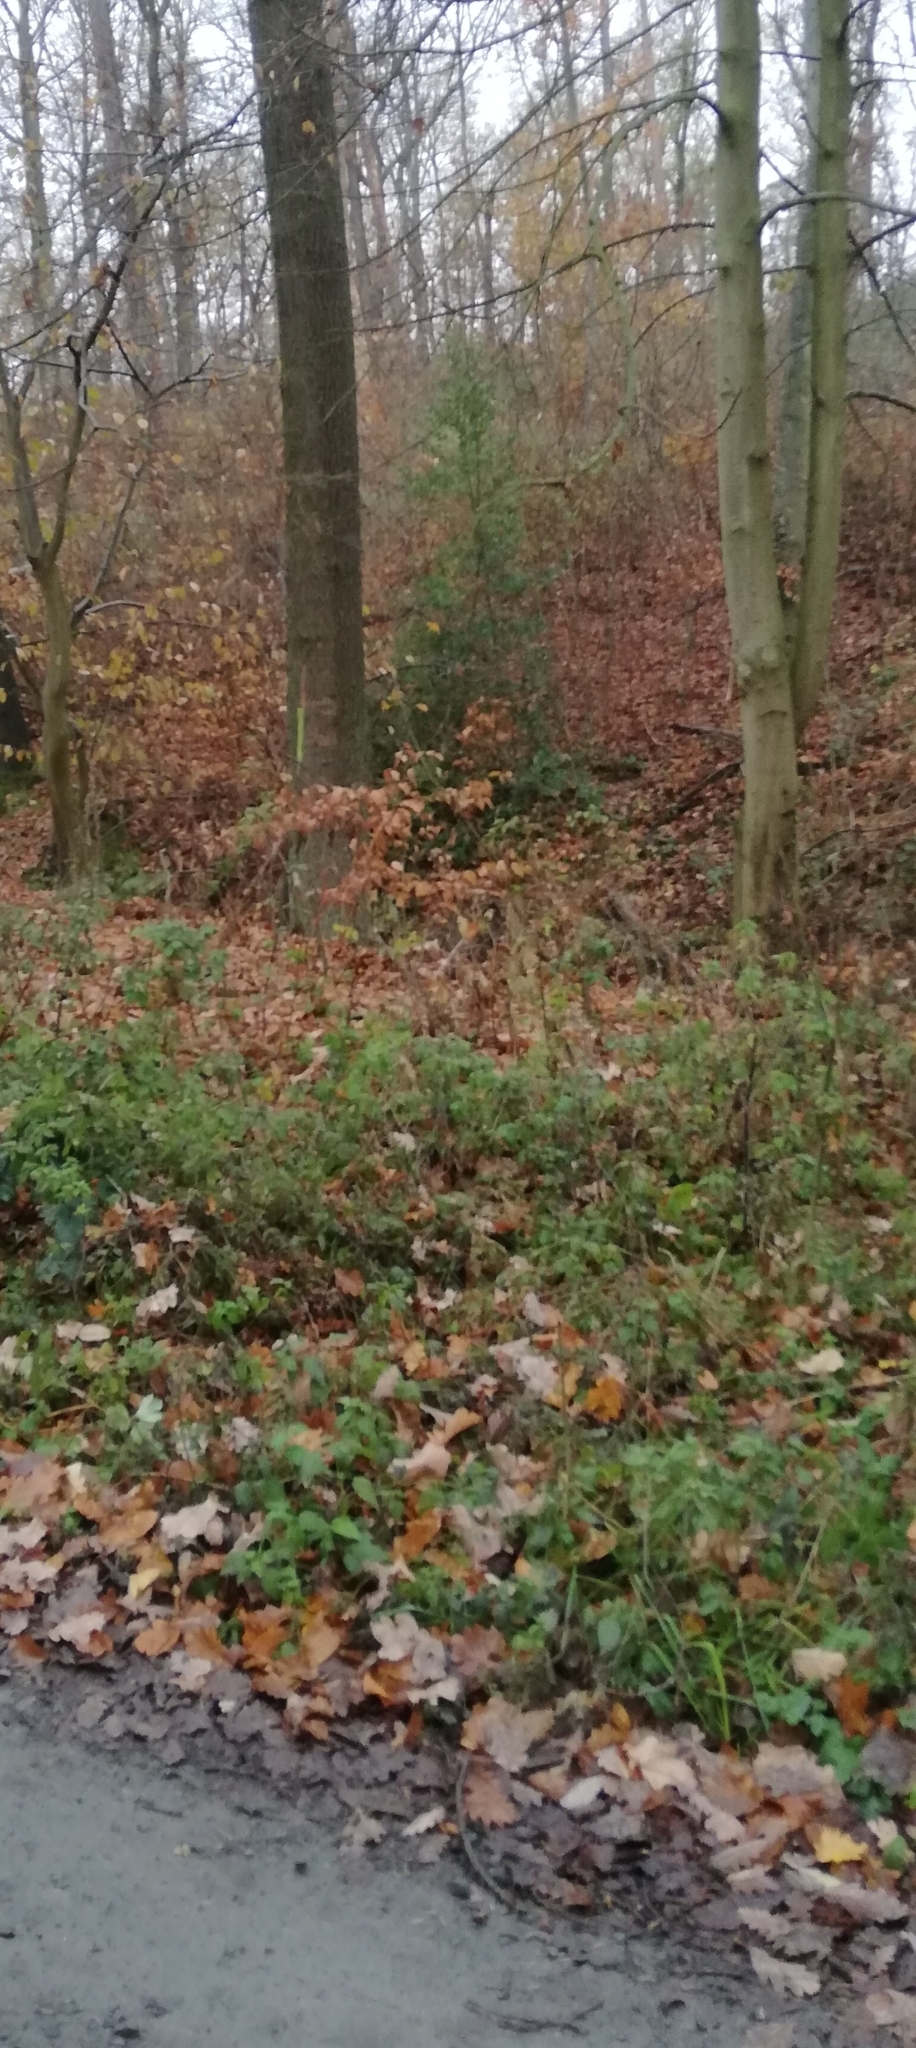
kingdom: Plantae
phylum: Tracheophyta
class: Magnoliopsida
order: Aquifoliales
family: Aquifoliaceae
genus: Ilex
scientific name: Ilex aquifolium
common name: English holly
